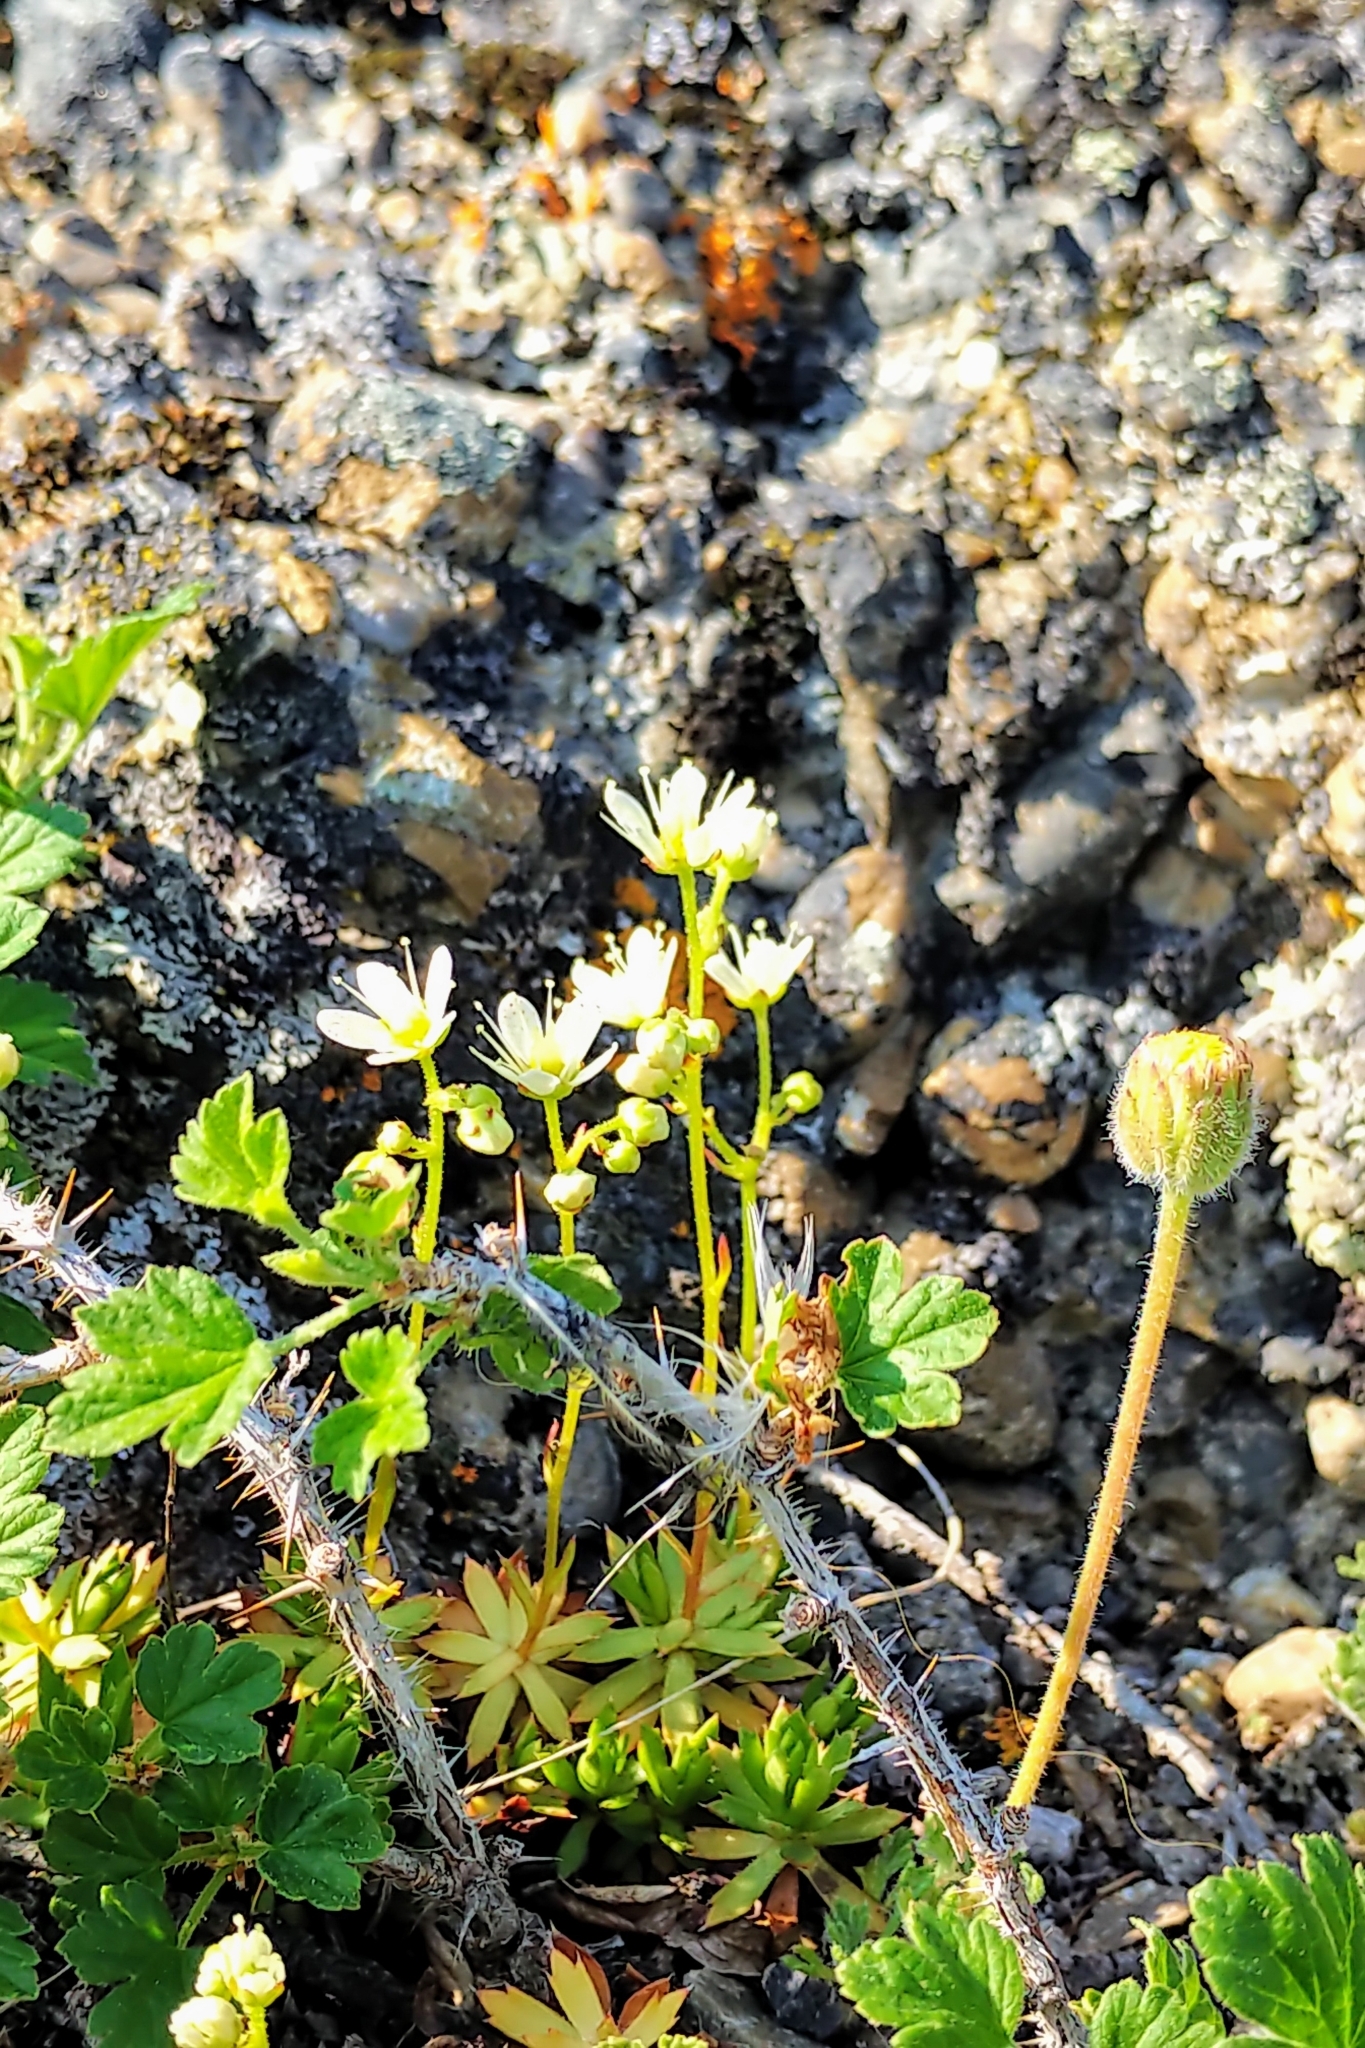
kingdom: Plantae
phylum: Tracheophyta
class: Magnoliopsida
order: Saxifragales
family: Saxifragaceae
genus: Saxifraga
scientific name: Saxifraga tricuspidata
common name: Prickly saxifrage
